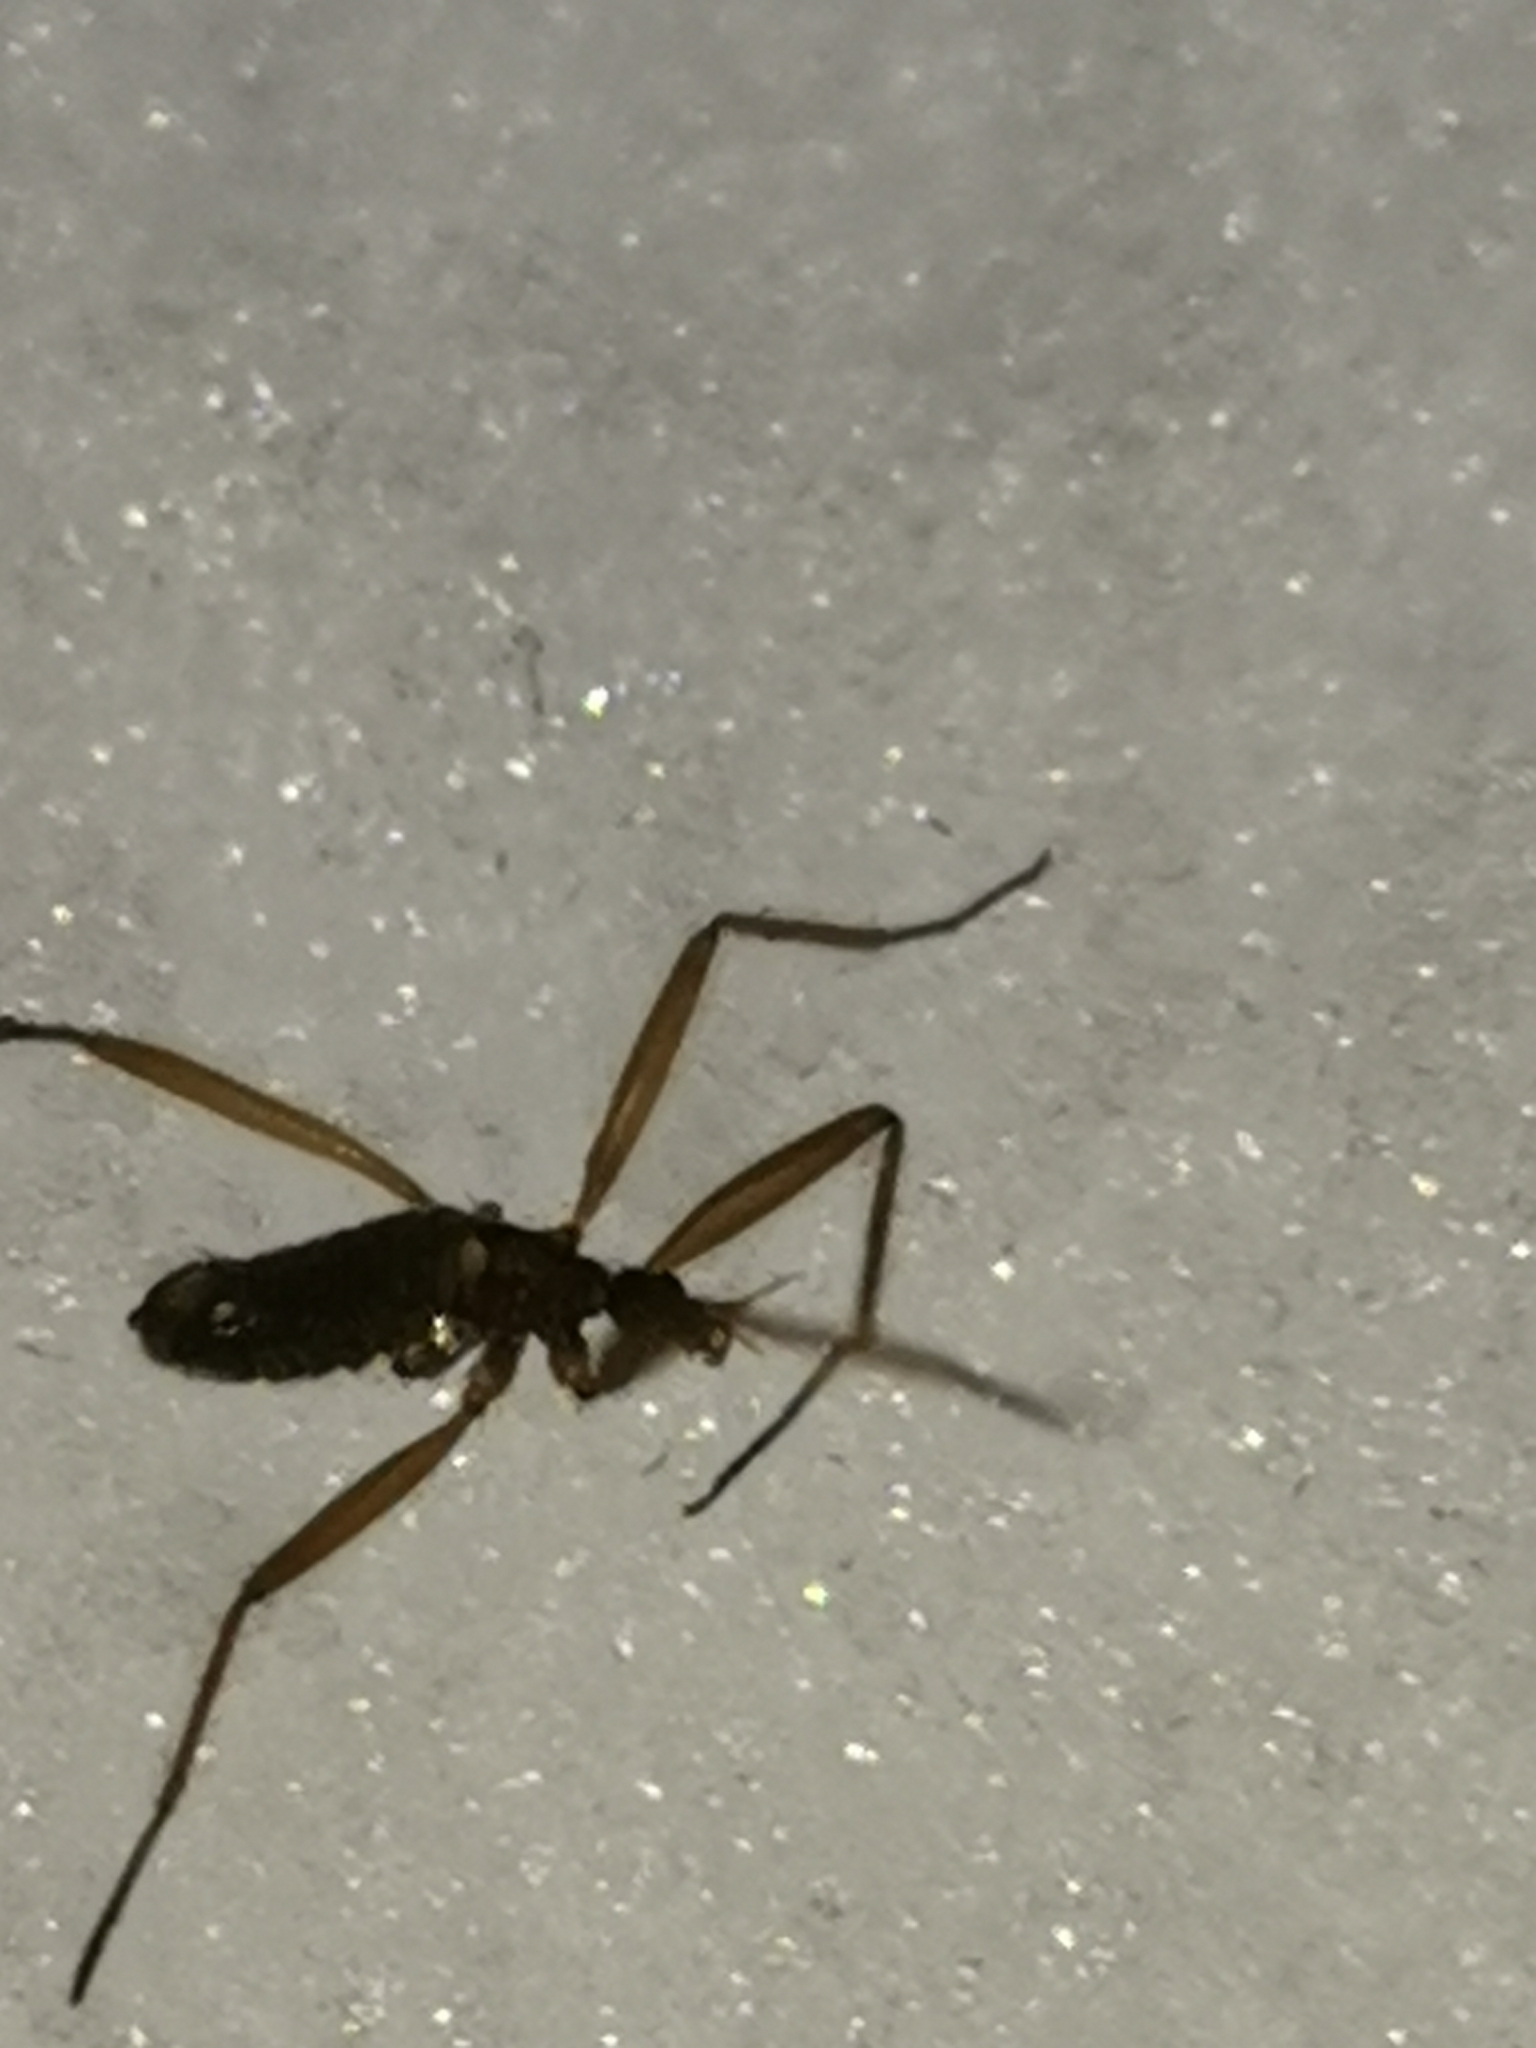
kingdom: Animalia
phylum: Arthropoda
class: Insecta
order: Diptera
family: Limoniidae
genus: Chionea
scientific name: Chionea araneoides
